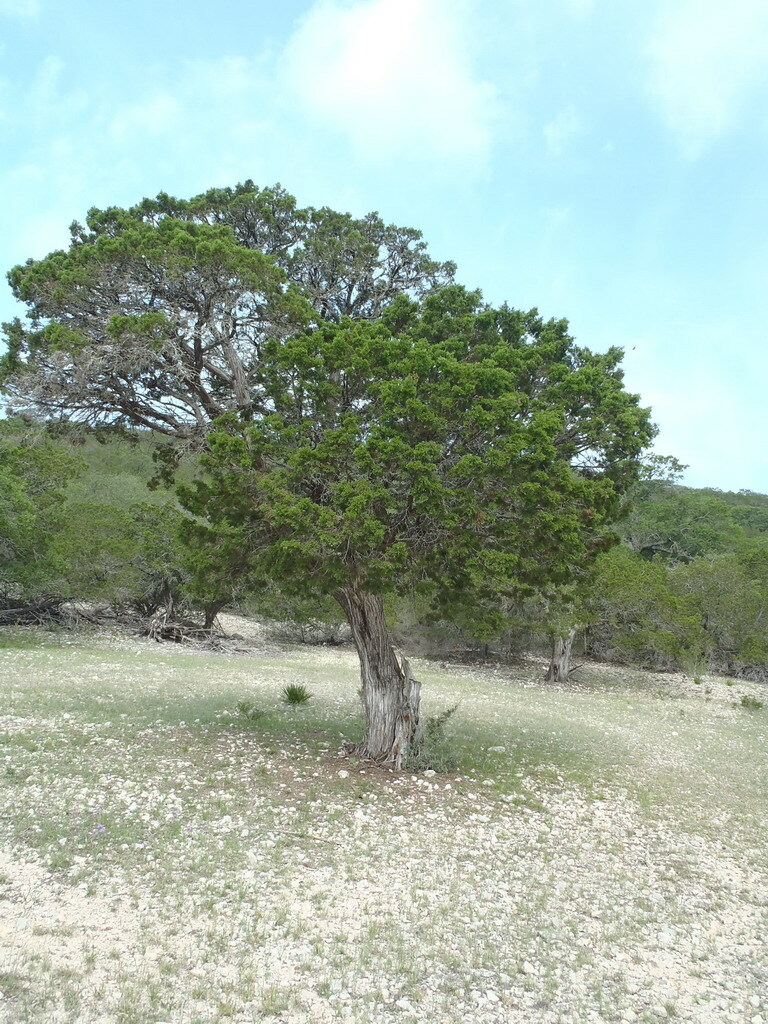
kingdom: Plantae
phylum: Tracheophyta
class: Pinopsida
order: Pinales
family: Cupressaceae
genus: Juniperus
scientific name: Juniperus ashei
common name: Mexican juniper
